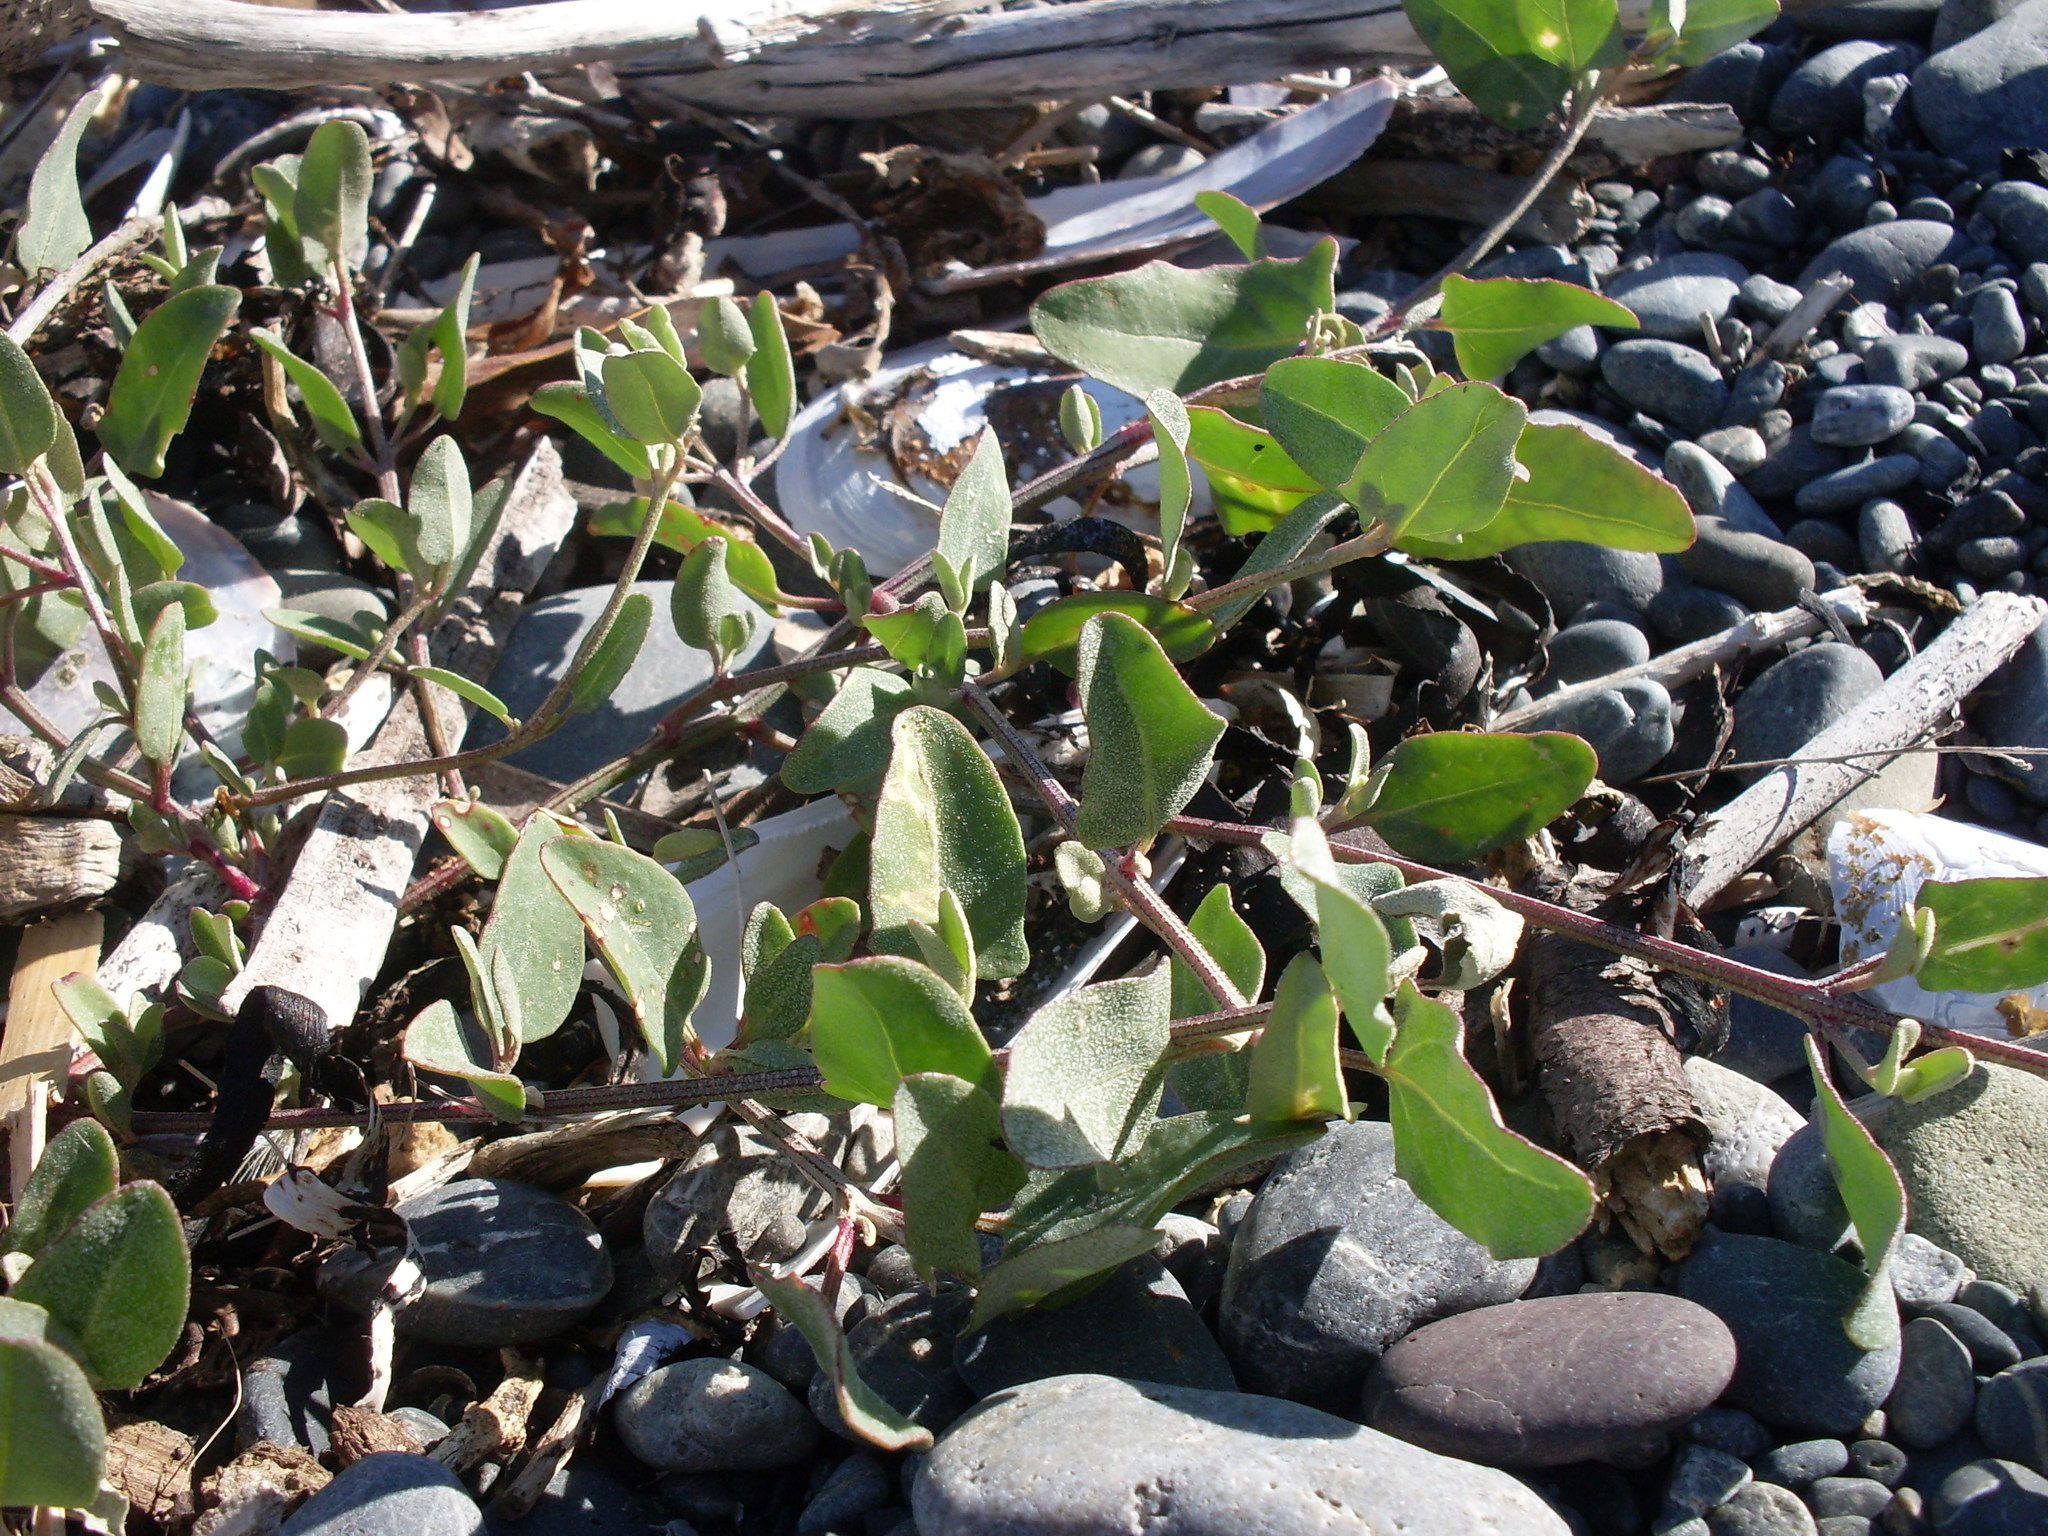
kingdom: Plantae
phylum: Tracheophyta
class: Magnoliopsida
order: Caryophyllales
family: Amaranthaceae
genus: Atriplex
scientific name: Atriplex prostrata
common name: Spear-leaved orache
